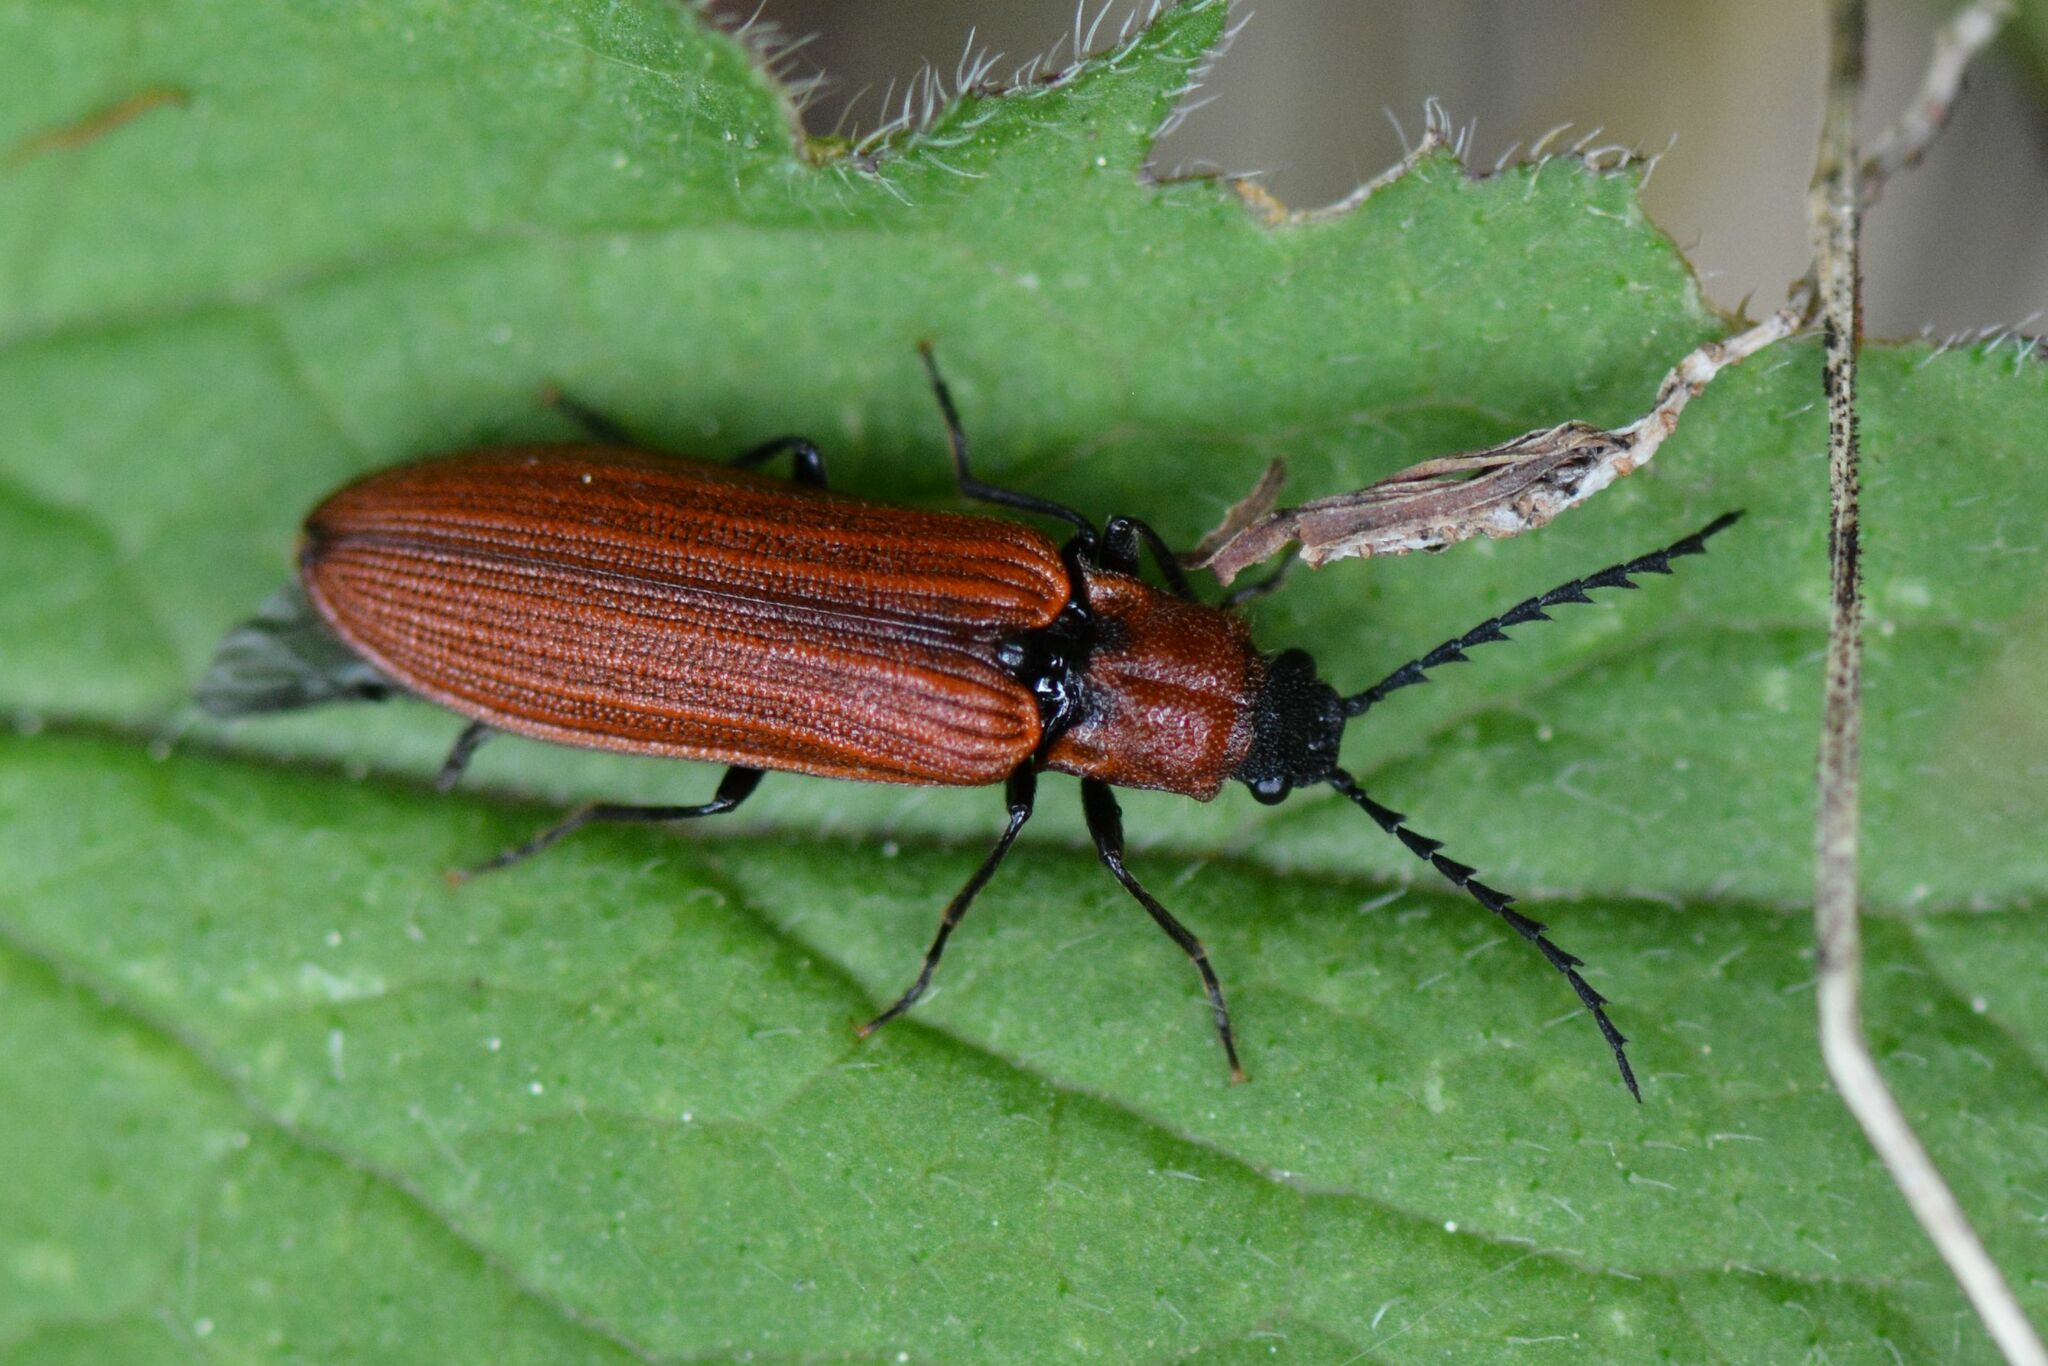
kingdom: Animalia
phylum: Arthropoda
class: Insecta
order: Coleoptera
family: Elateridae
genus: Denticollis
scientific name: Denticollis rubens
